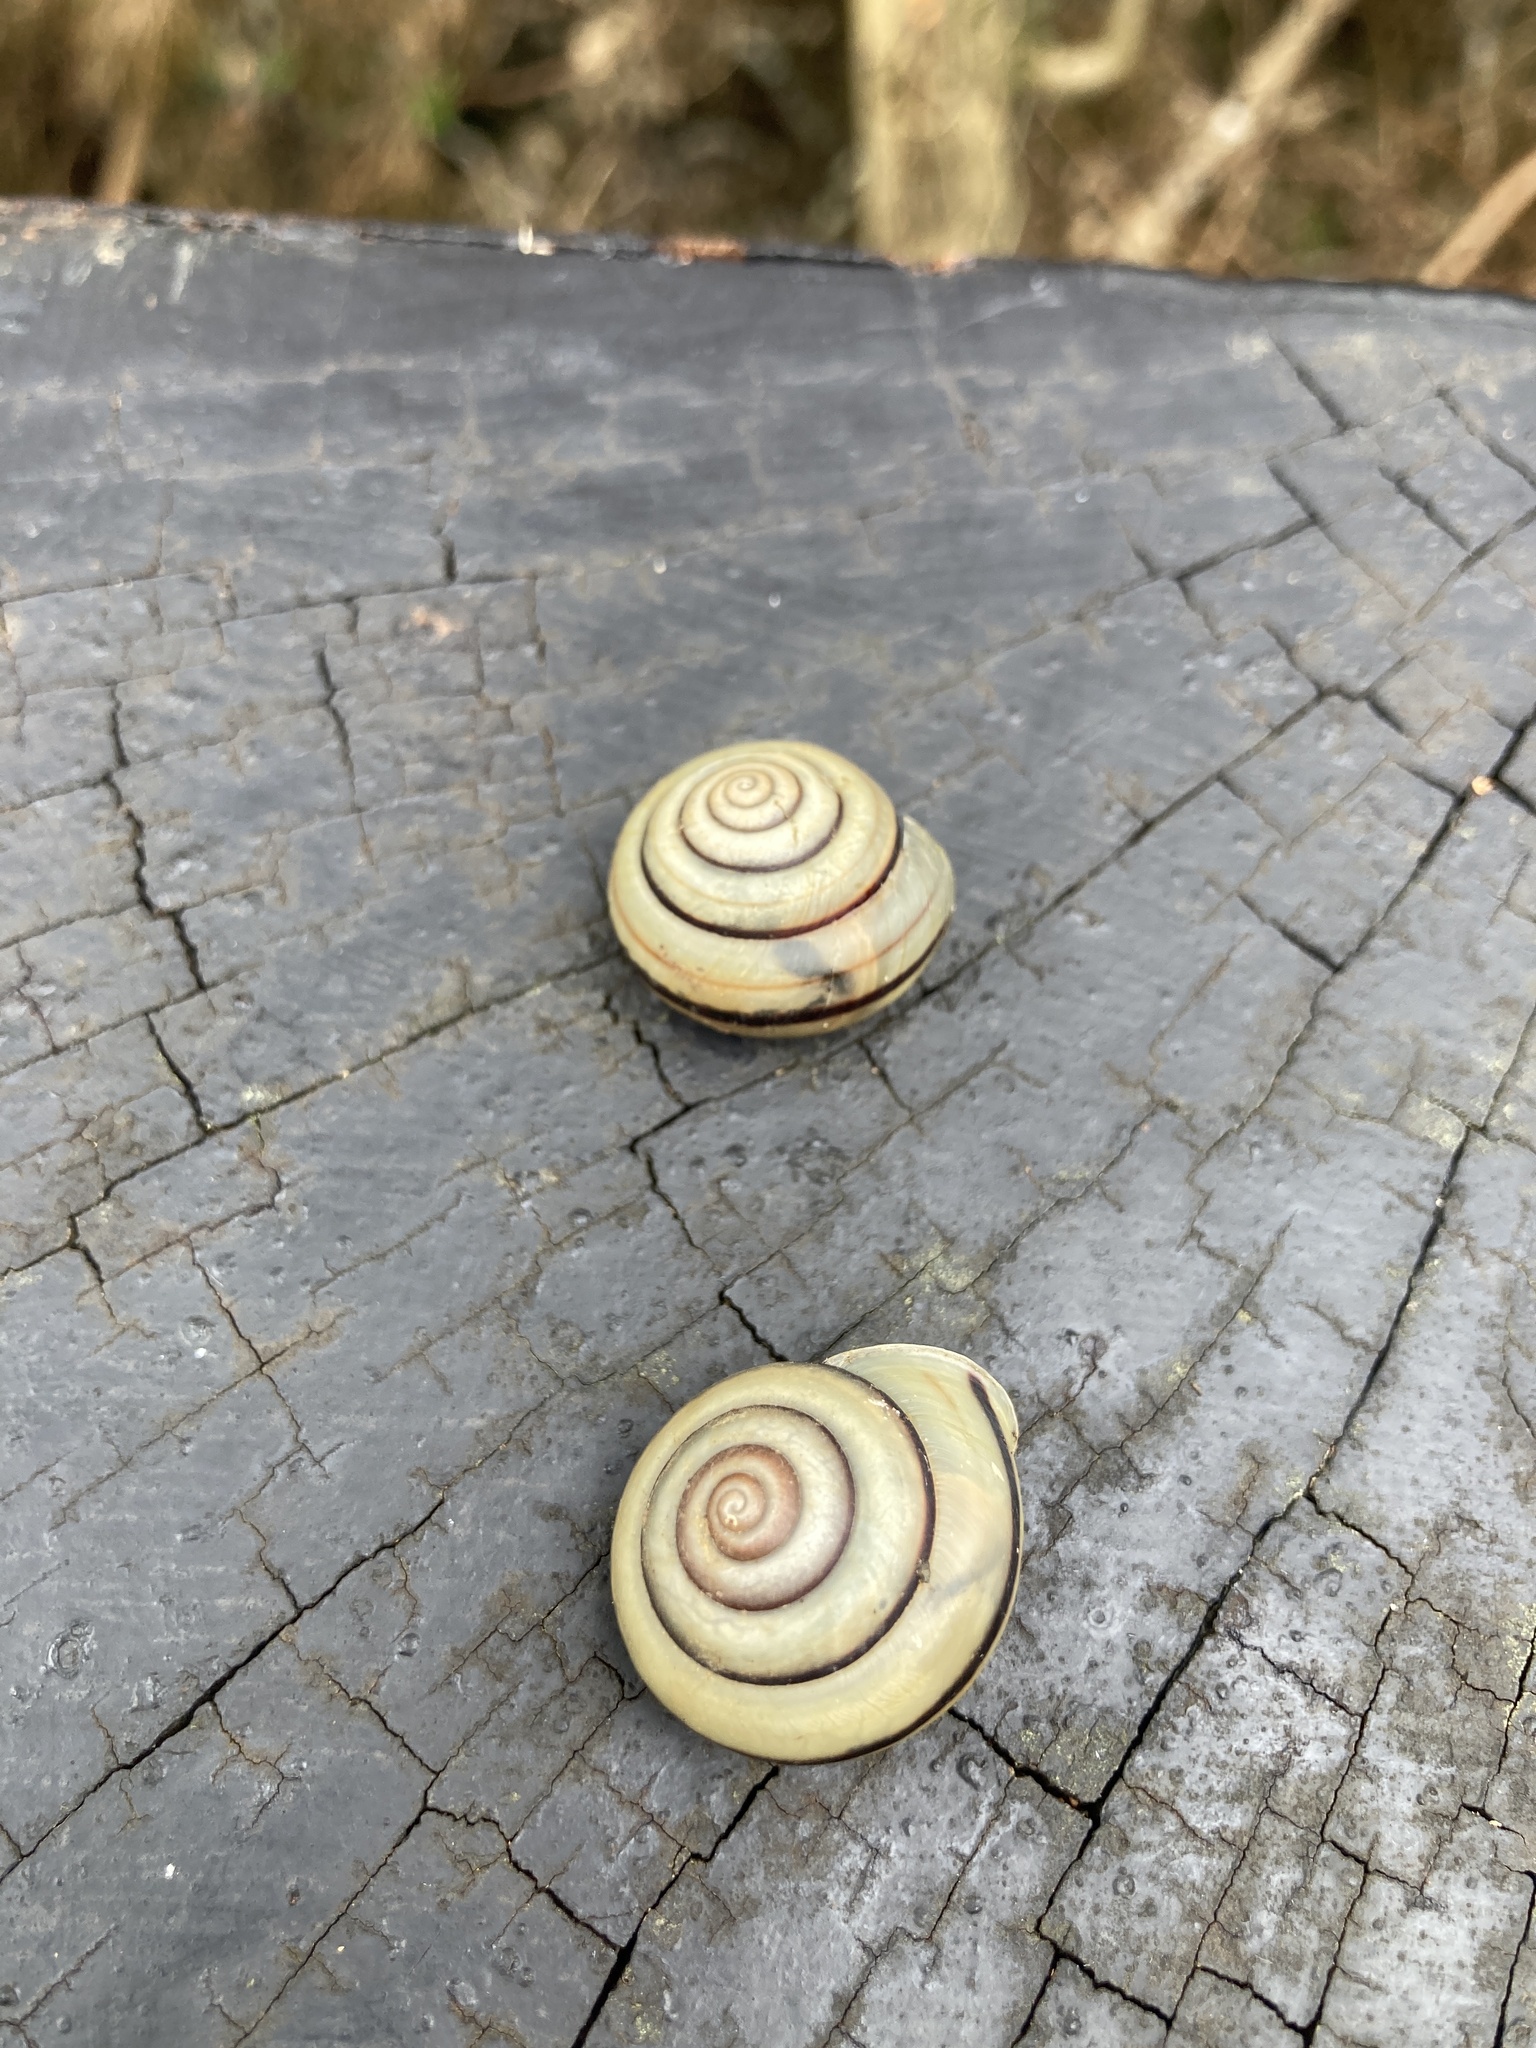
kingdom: Animalia
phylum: Mollusca
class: Gastropoda
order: Stylommatophora
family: Camaenidae
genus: Pancala
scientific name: Pancala batanica
